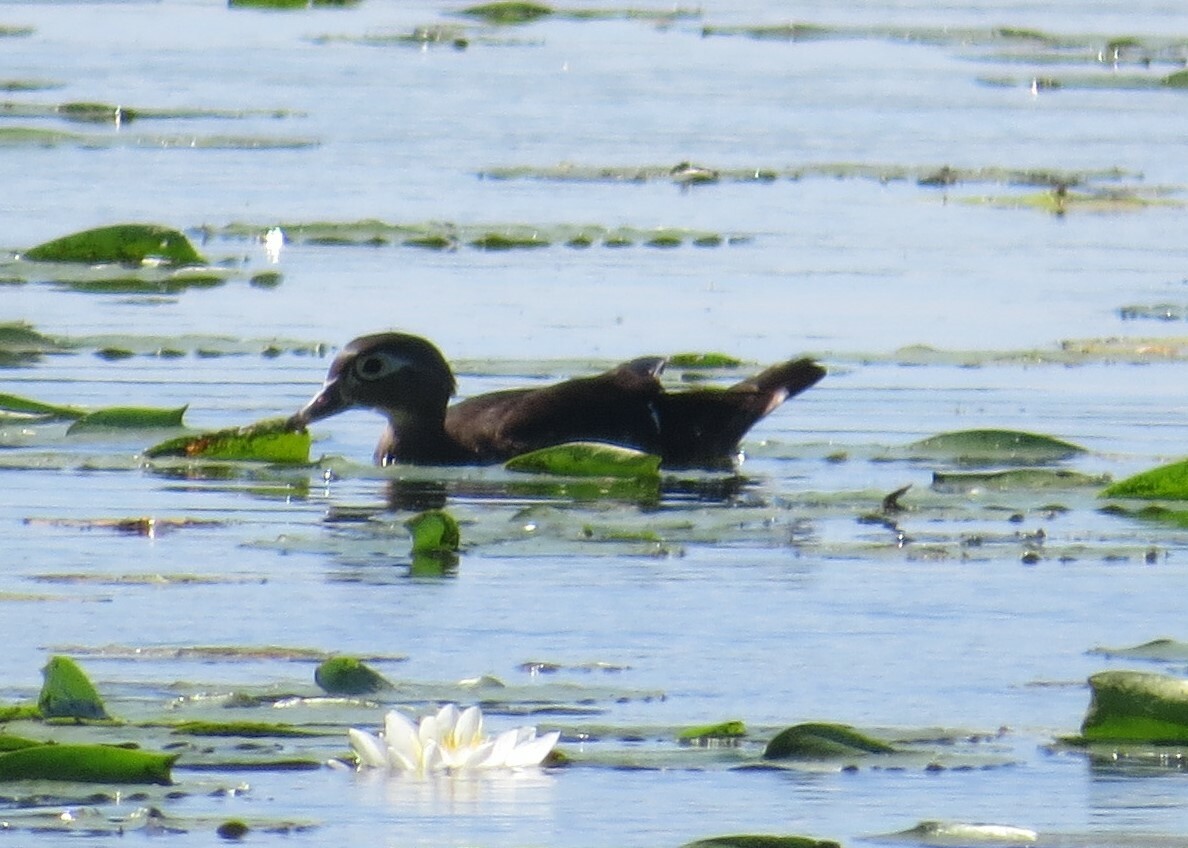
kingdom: Animalia
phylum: Chordata
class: Aves
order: Anseriformes
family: Anatidae
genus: Aix
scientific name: Aix sponsa
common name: Wood duck
